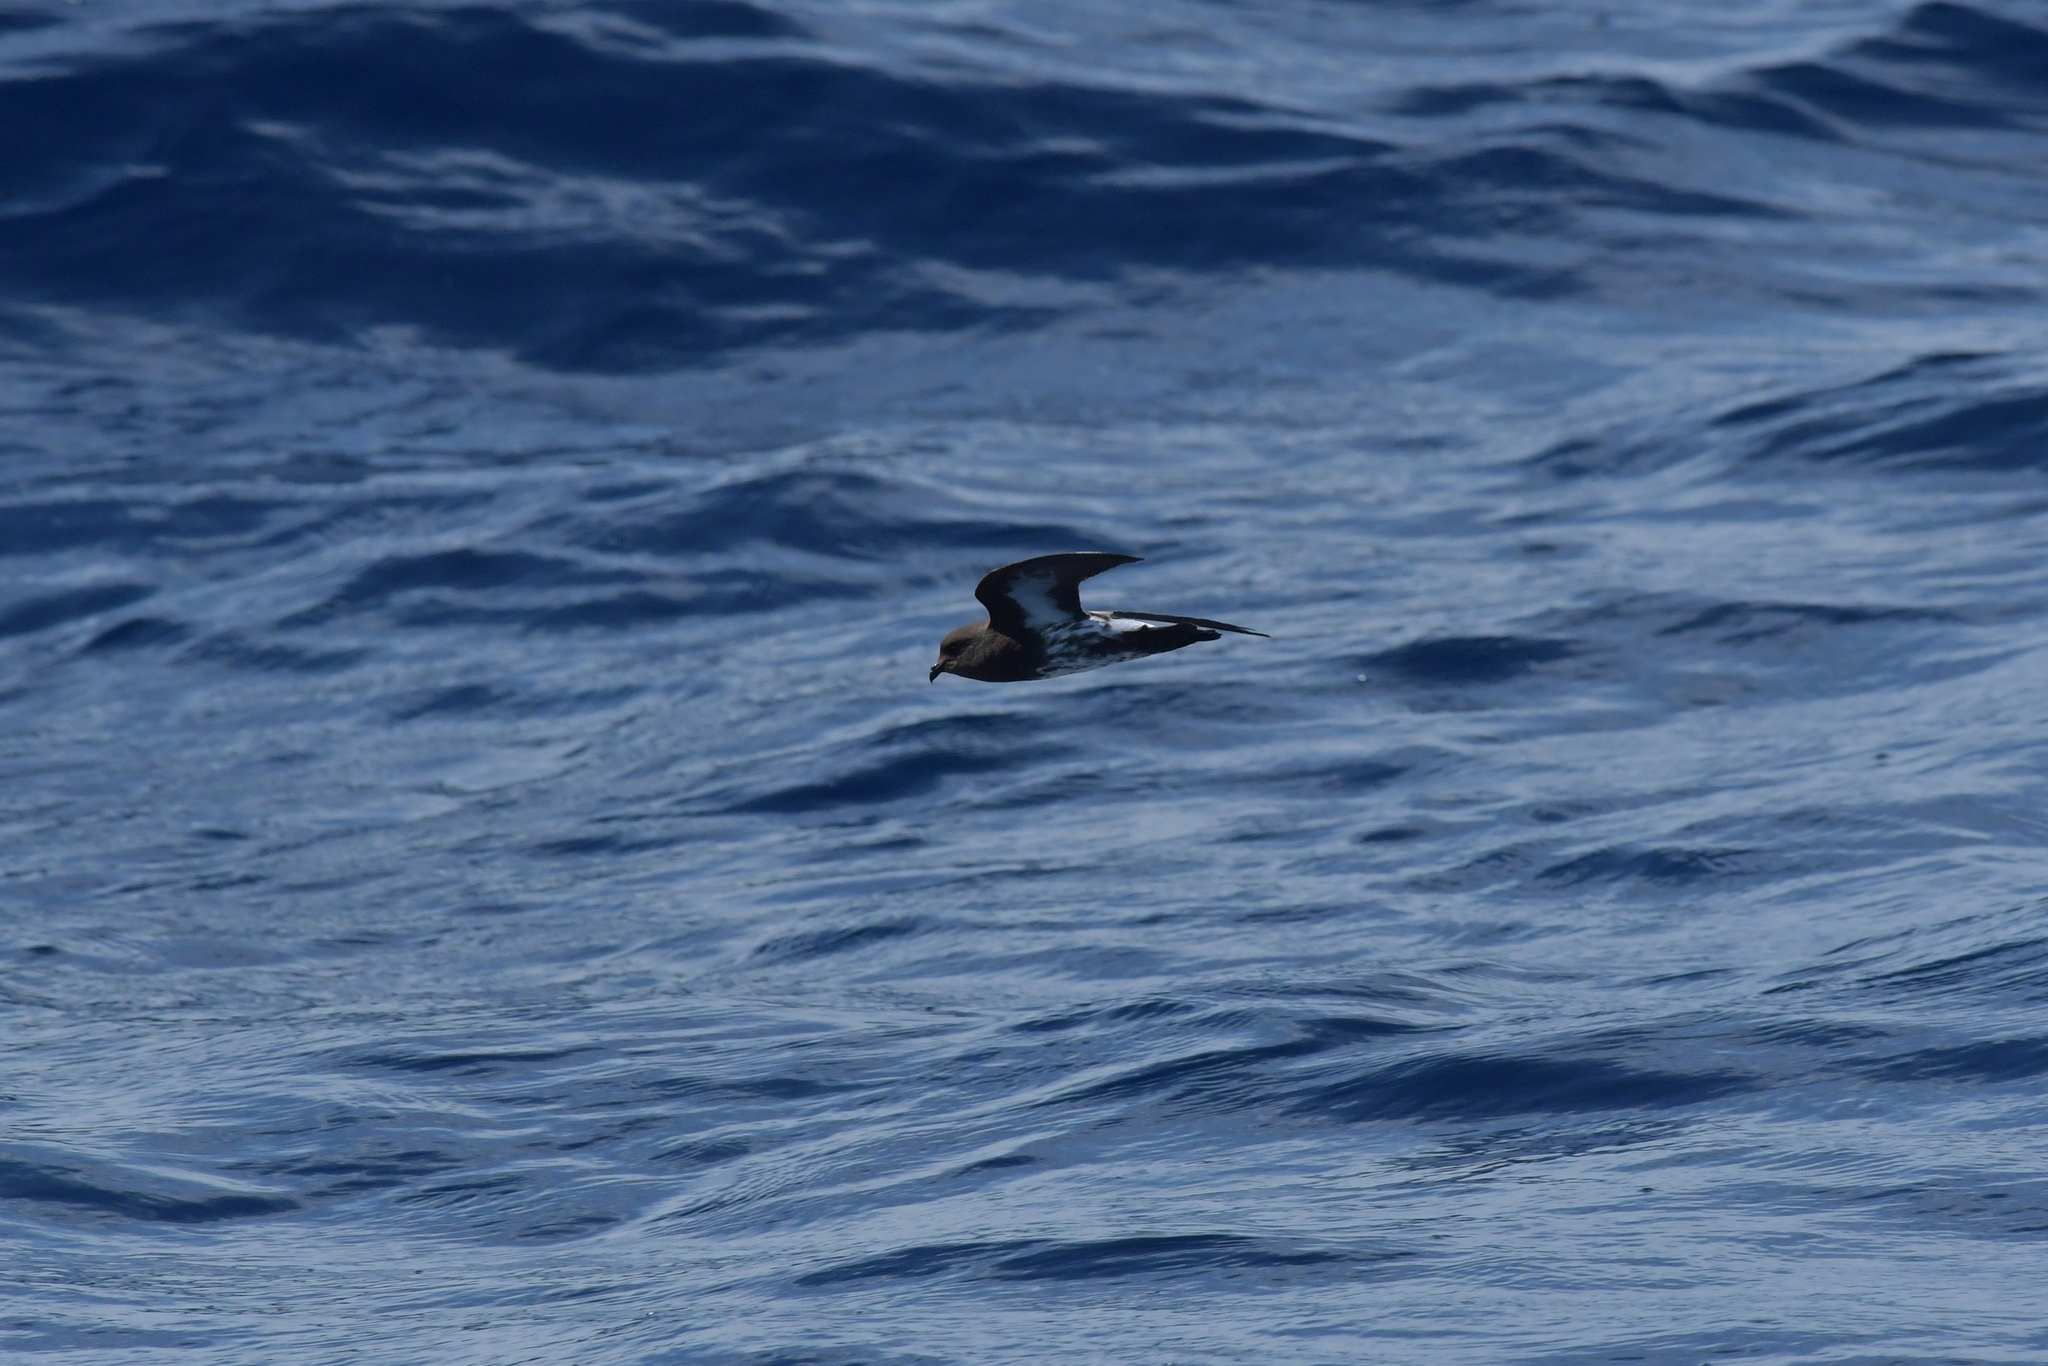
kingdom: Animalia
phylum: Chordata
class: Aves
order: Procellariiformes
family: Hydrobatidae
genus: Oceanites
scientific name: Oceanites maorianus
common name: New zealand storm petrel
